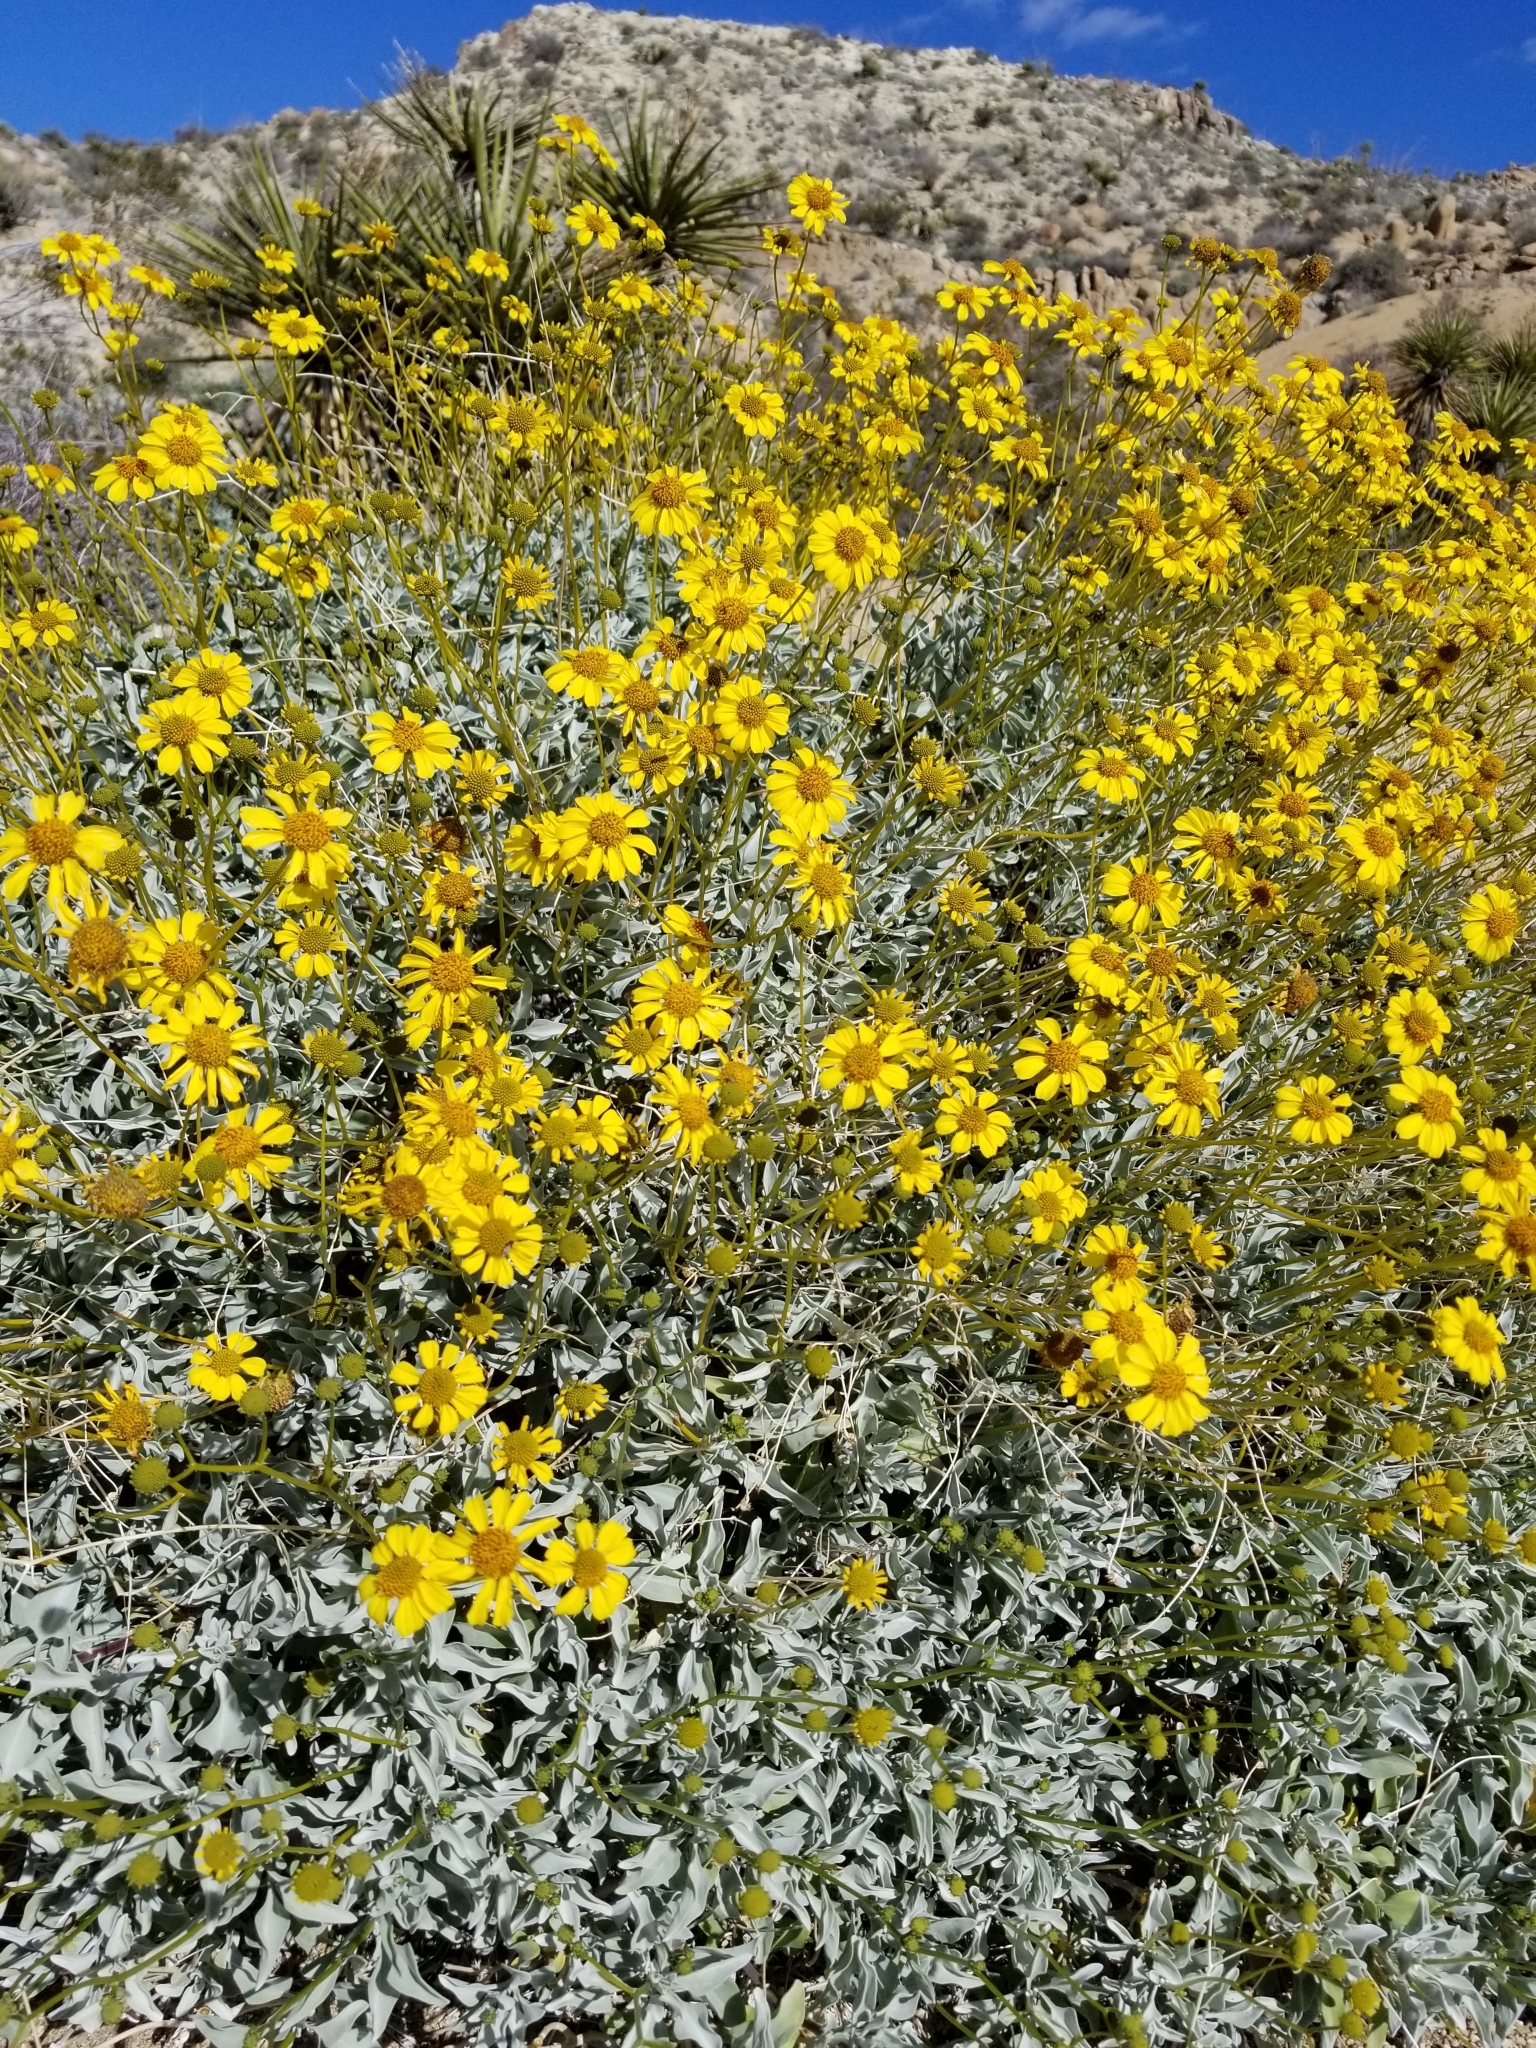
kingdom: Plantae
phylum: Tracheophyta
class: Magnoliopsida
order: Asterales
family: Asteraceae
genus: Encelia
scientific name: Encelia farinosa
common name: Brittlebush
